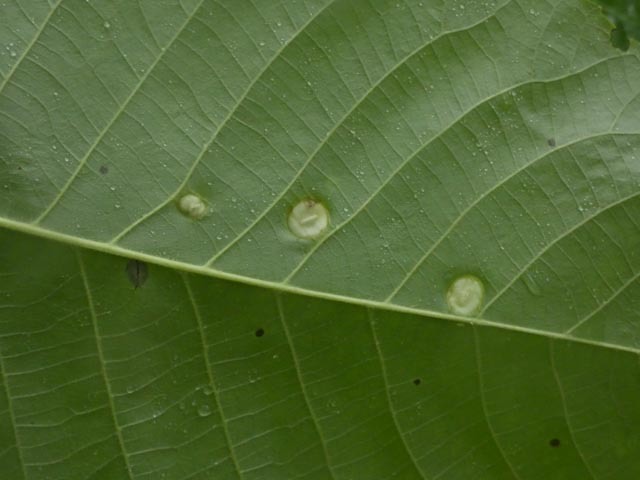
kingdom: Animalia
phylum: Arthropoda
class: Insecta
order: Hemiptera
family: Phylloxeridae
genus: Phylloxera
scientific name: Phylloxera caryae-globuli
